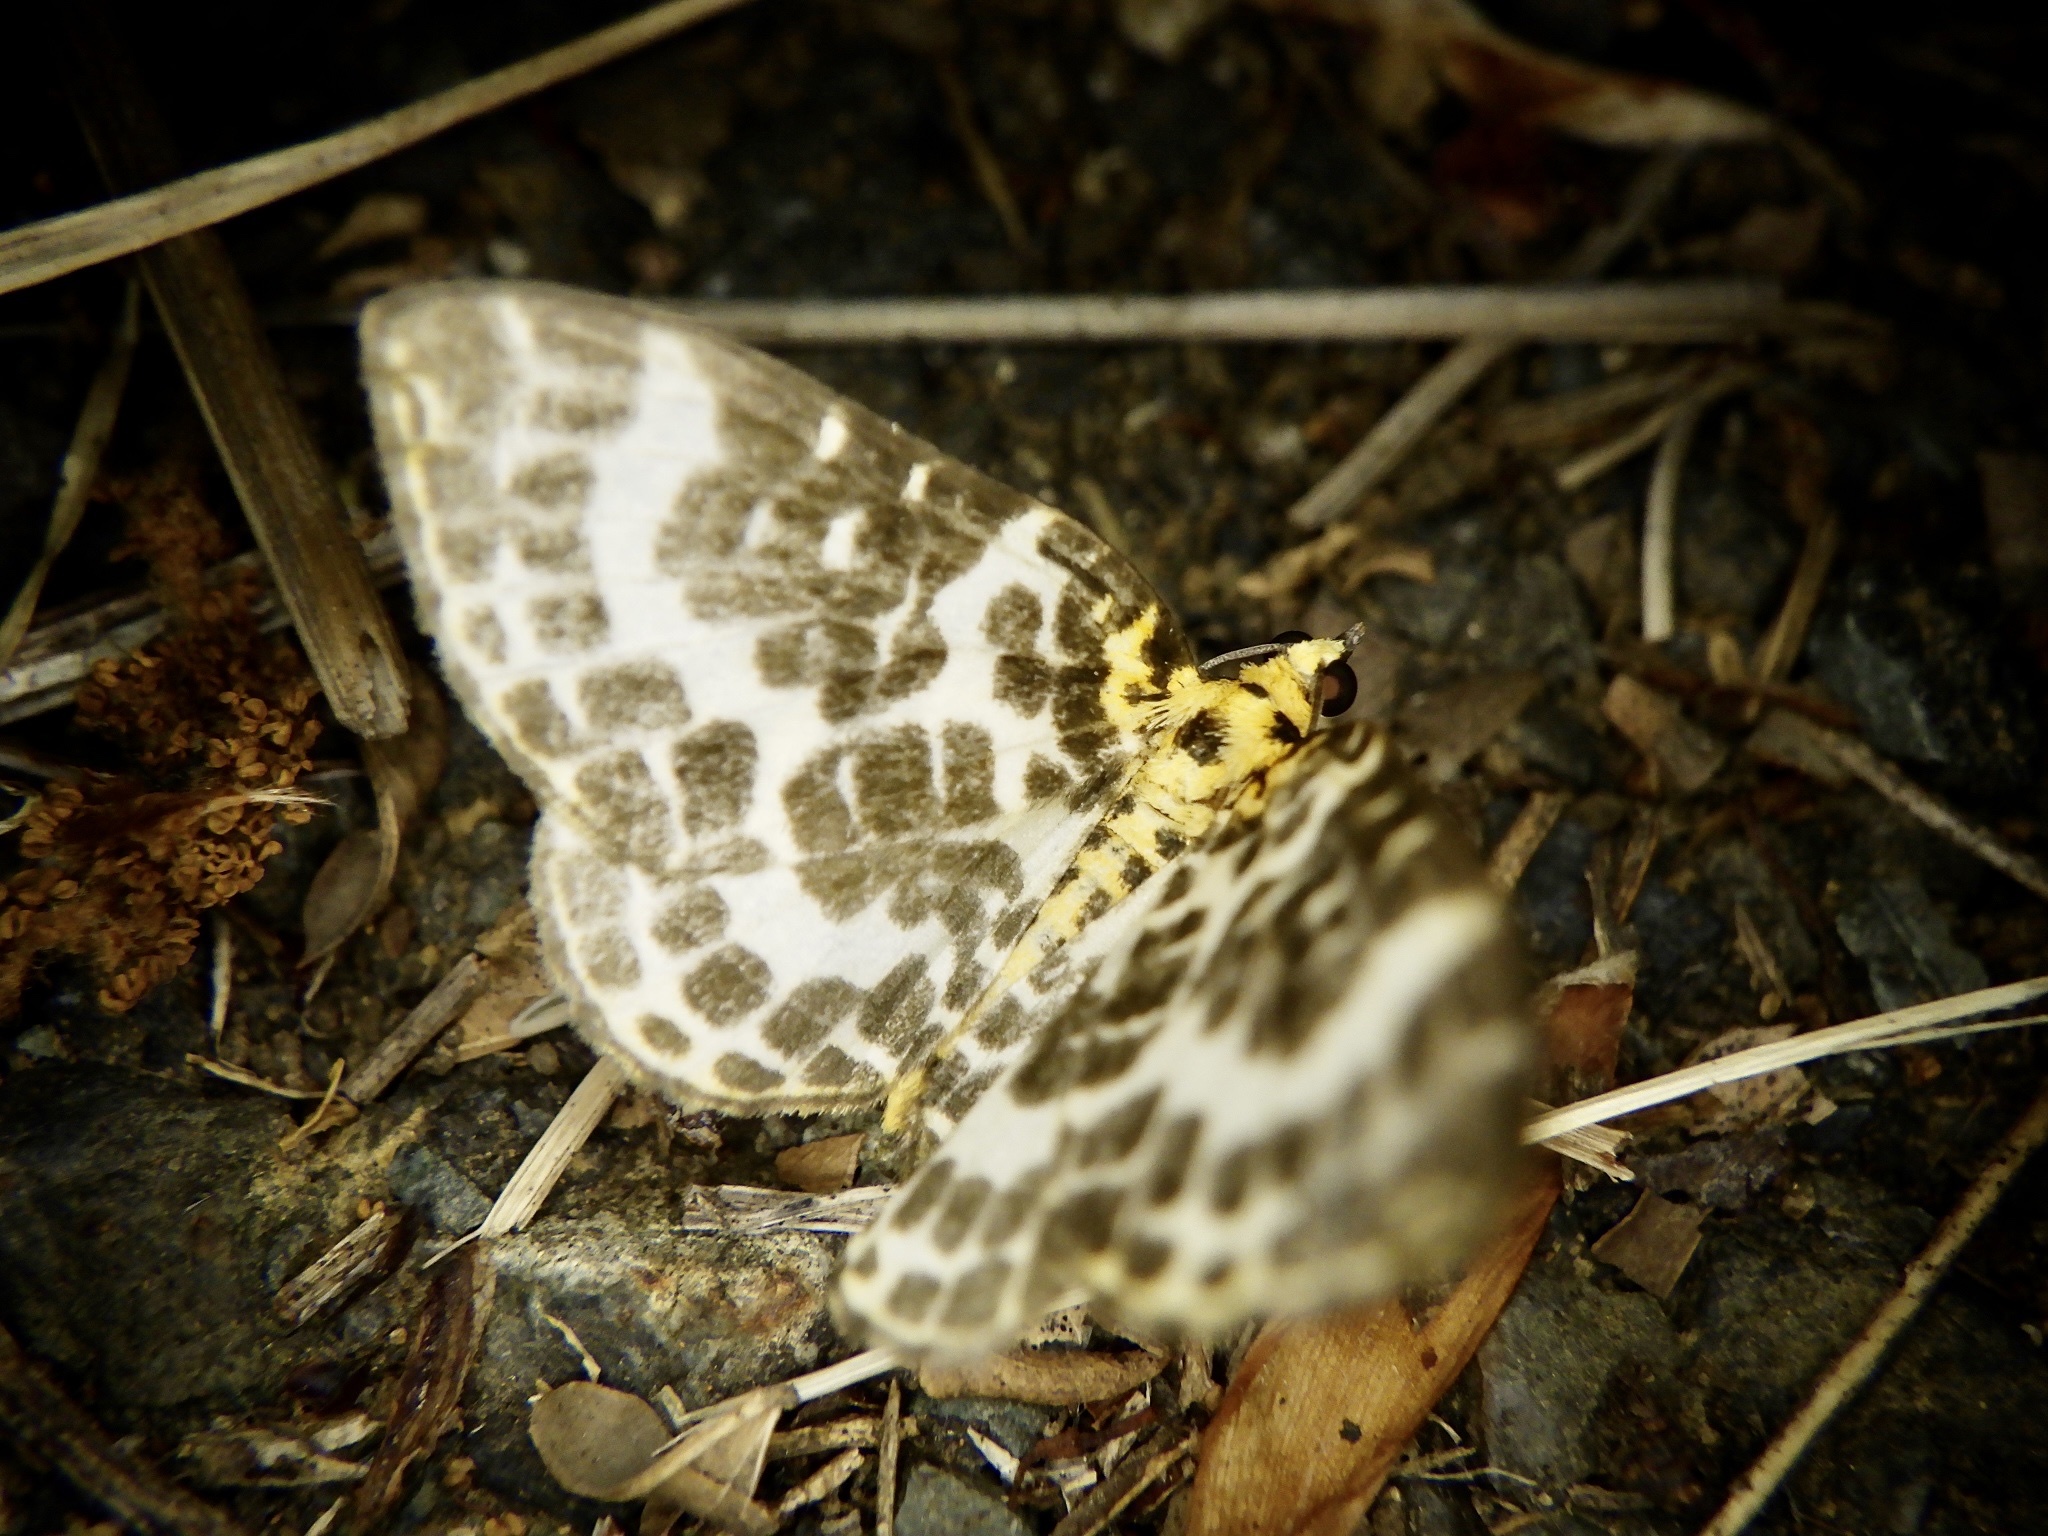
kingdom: Animalia
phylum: Arthropoda
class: Insecta
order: Lepidoptera
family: Geometridae
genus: Gandaritis
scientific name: Gandaritis
